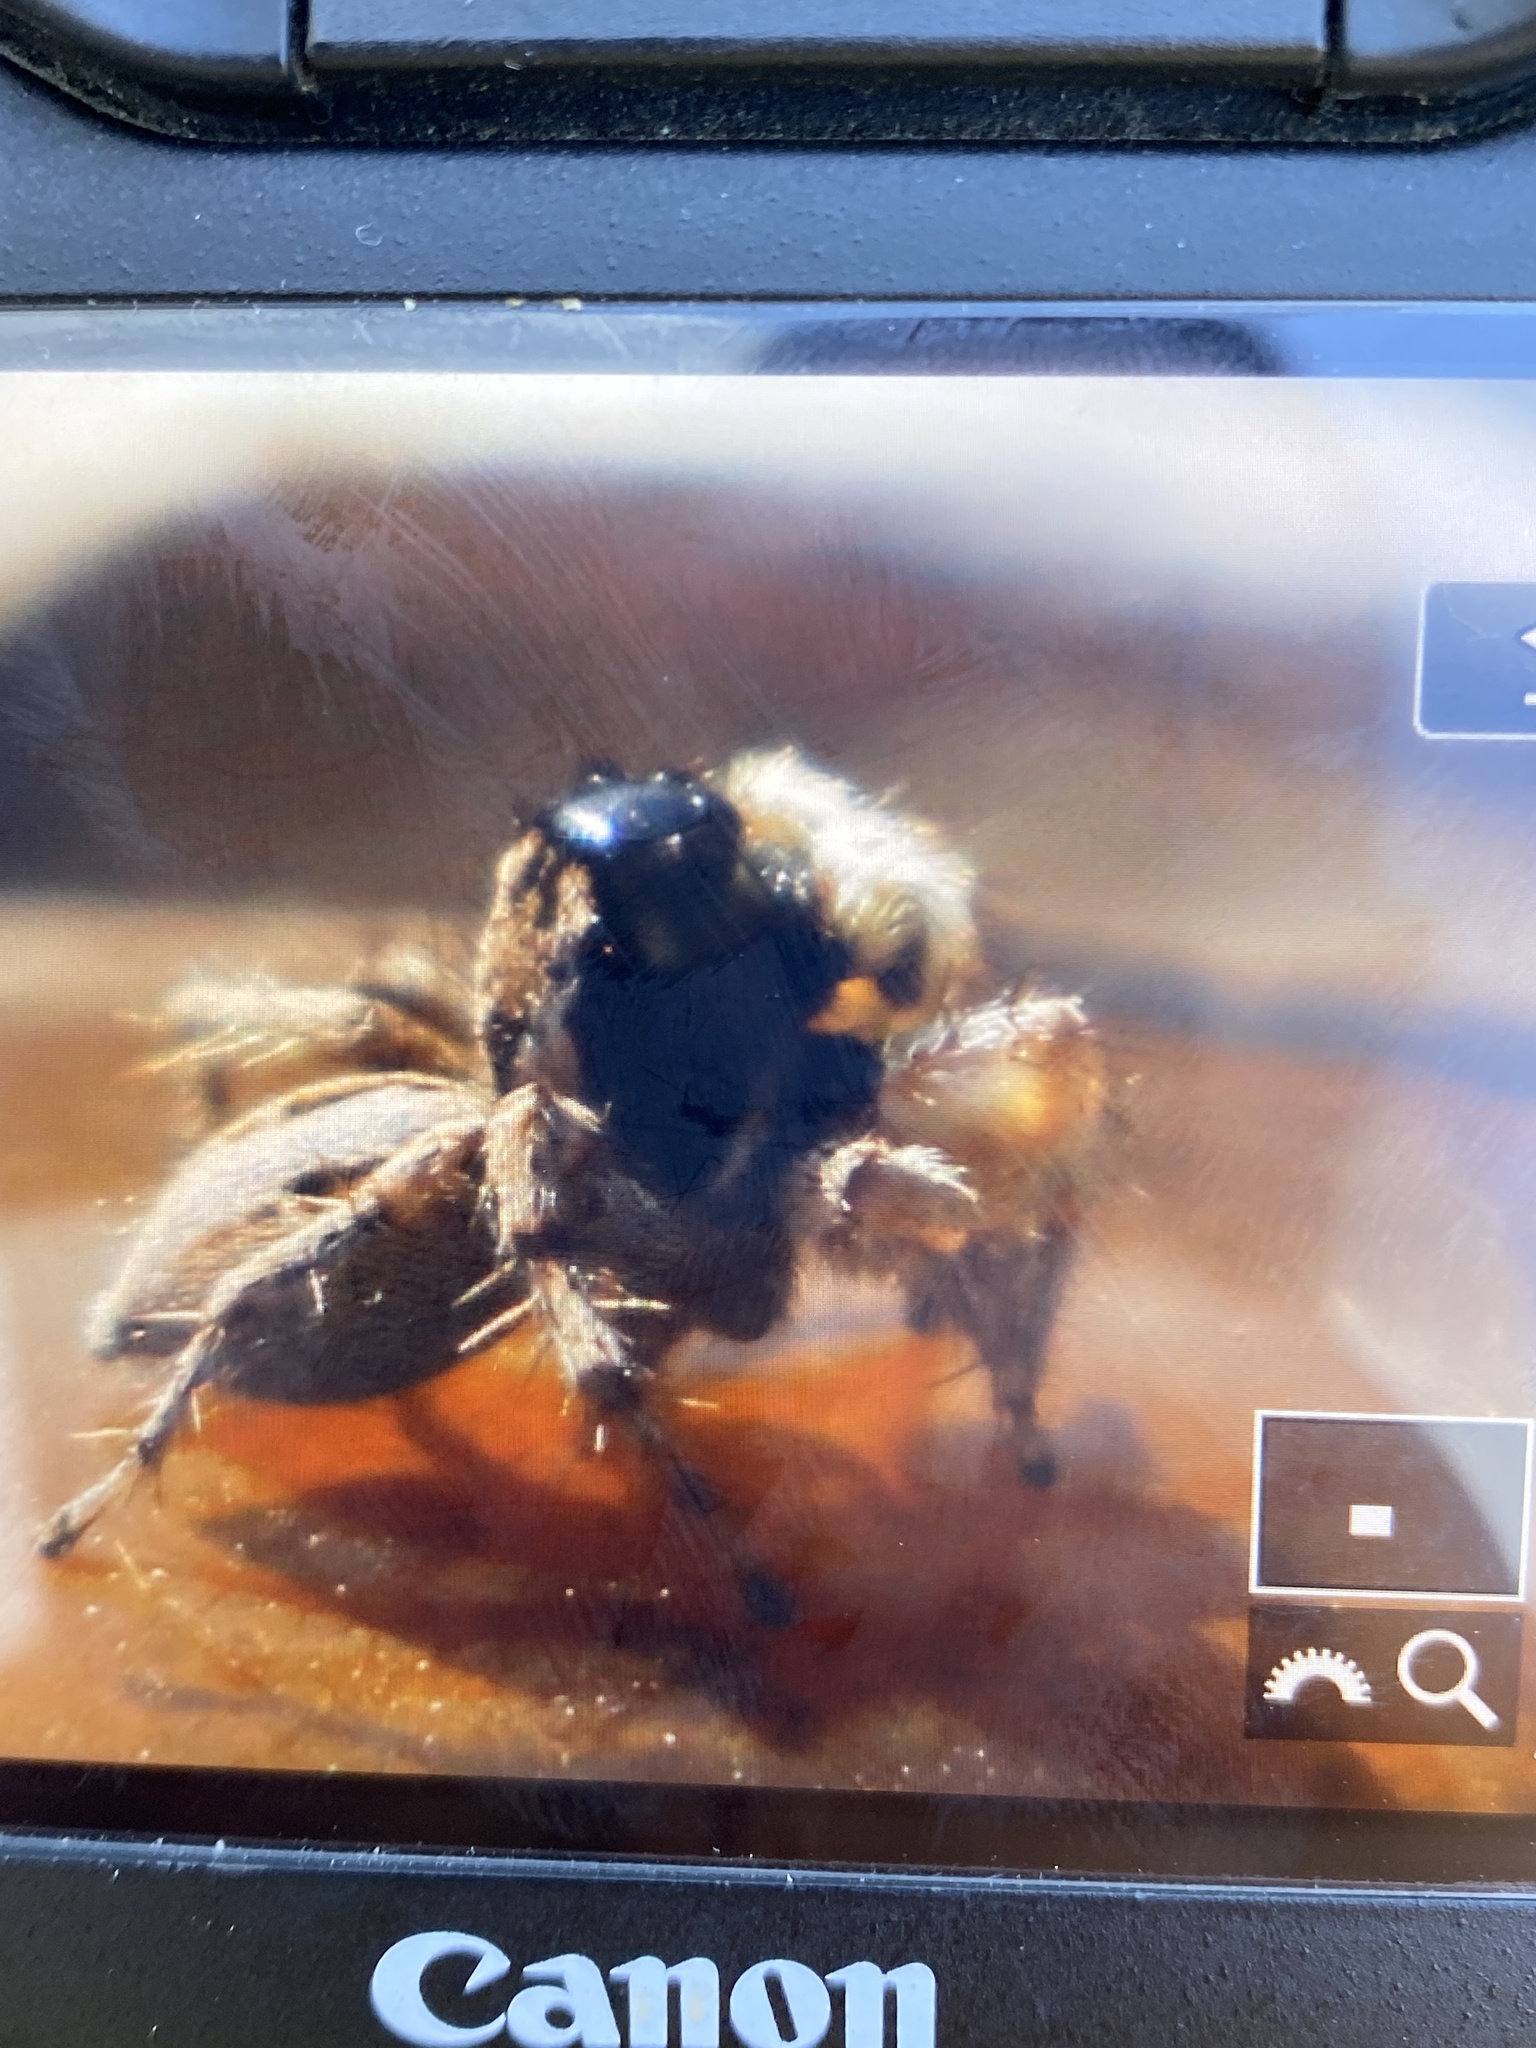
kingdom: Animalia
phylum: Arthropoda
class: Arachnida
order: Araneae
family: Salticidae
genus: Aelurillus
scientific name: Aelurillus lopadusae
